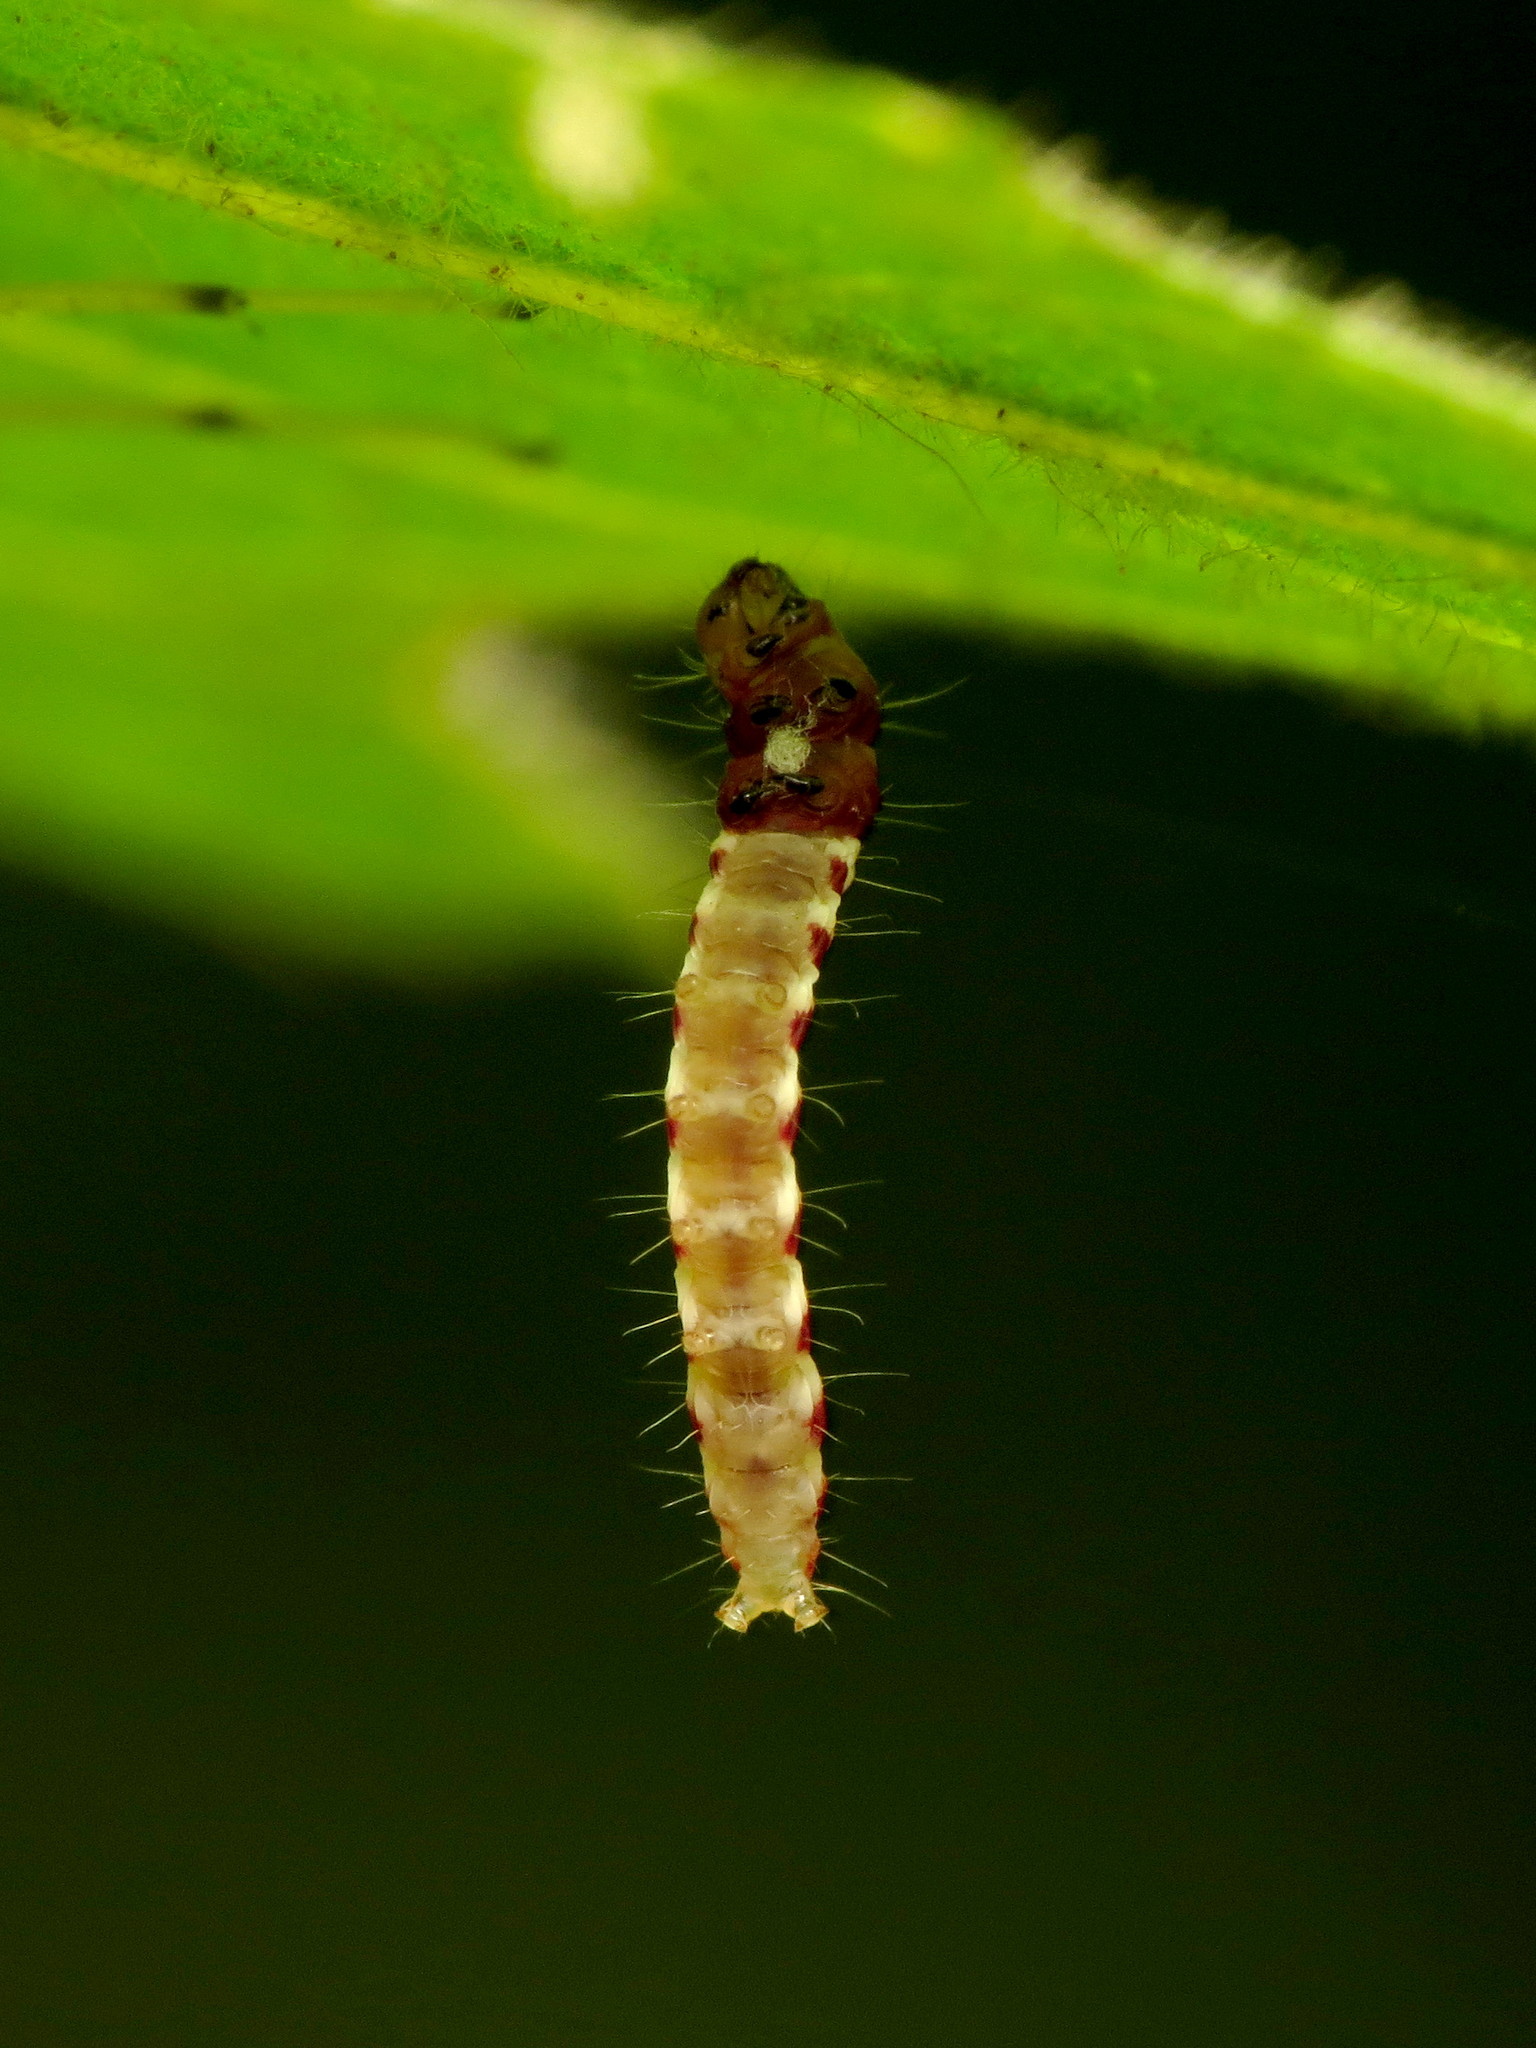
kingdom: Animalia
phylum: Arthropoda
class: Insecta
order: Lepidoptera
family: Gelechiidae
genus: Arogalea
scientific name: Arogalea cristifasciella
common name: White stripe-backed moth
